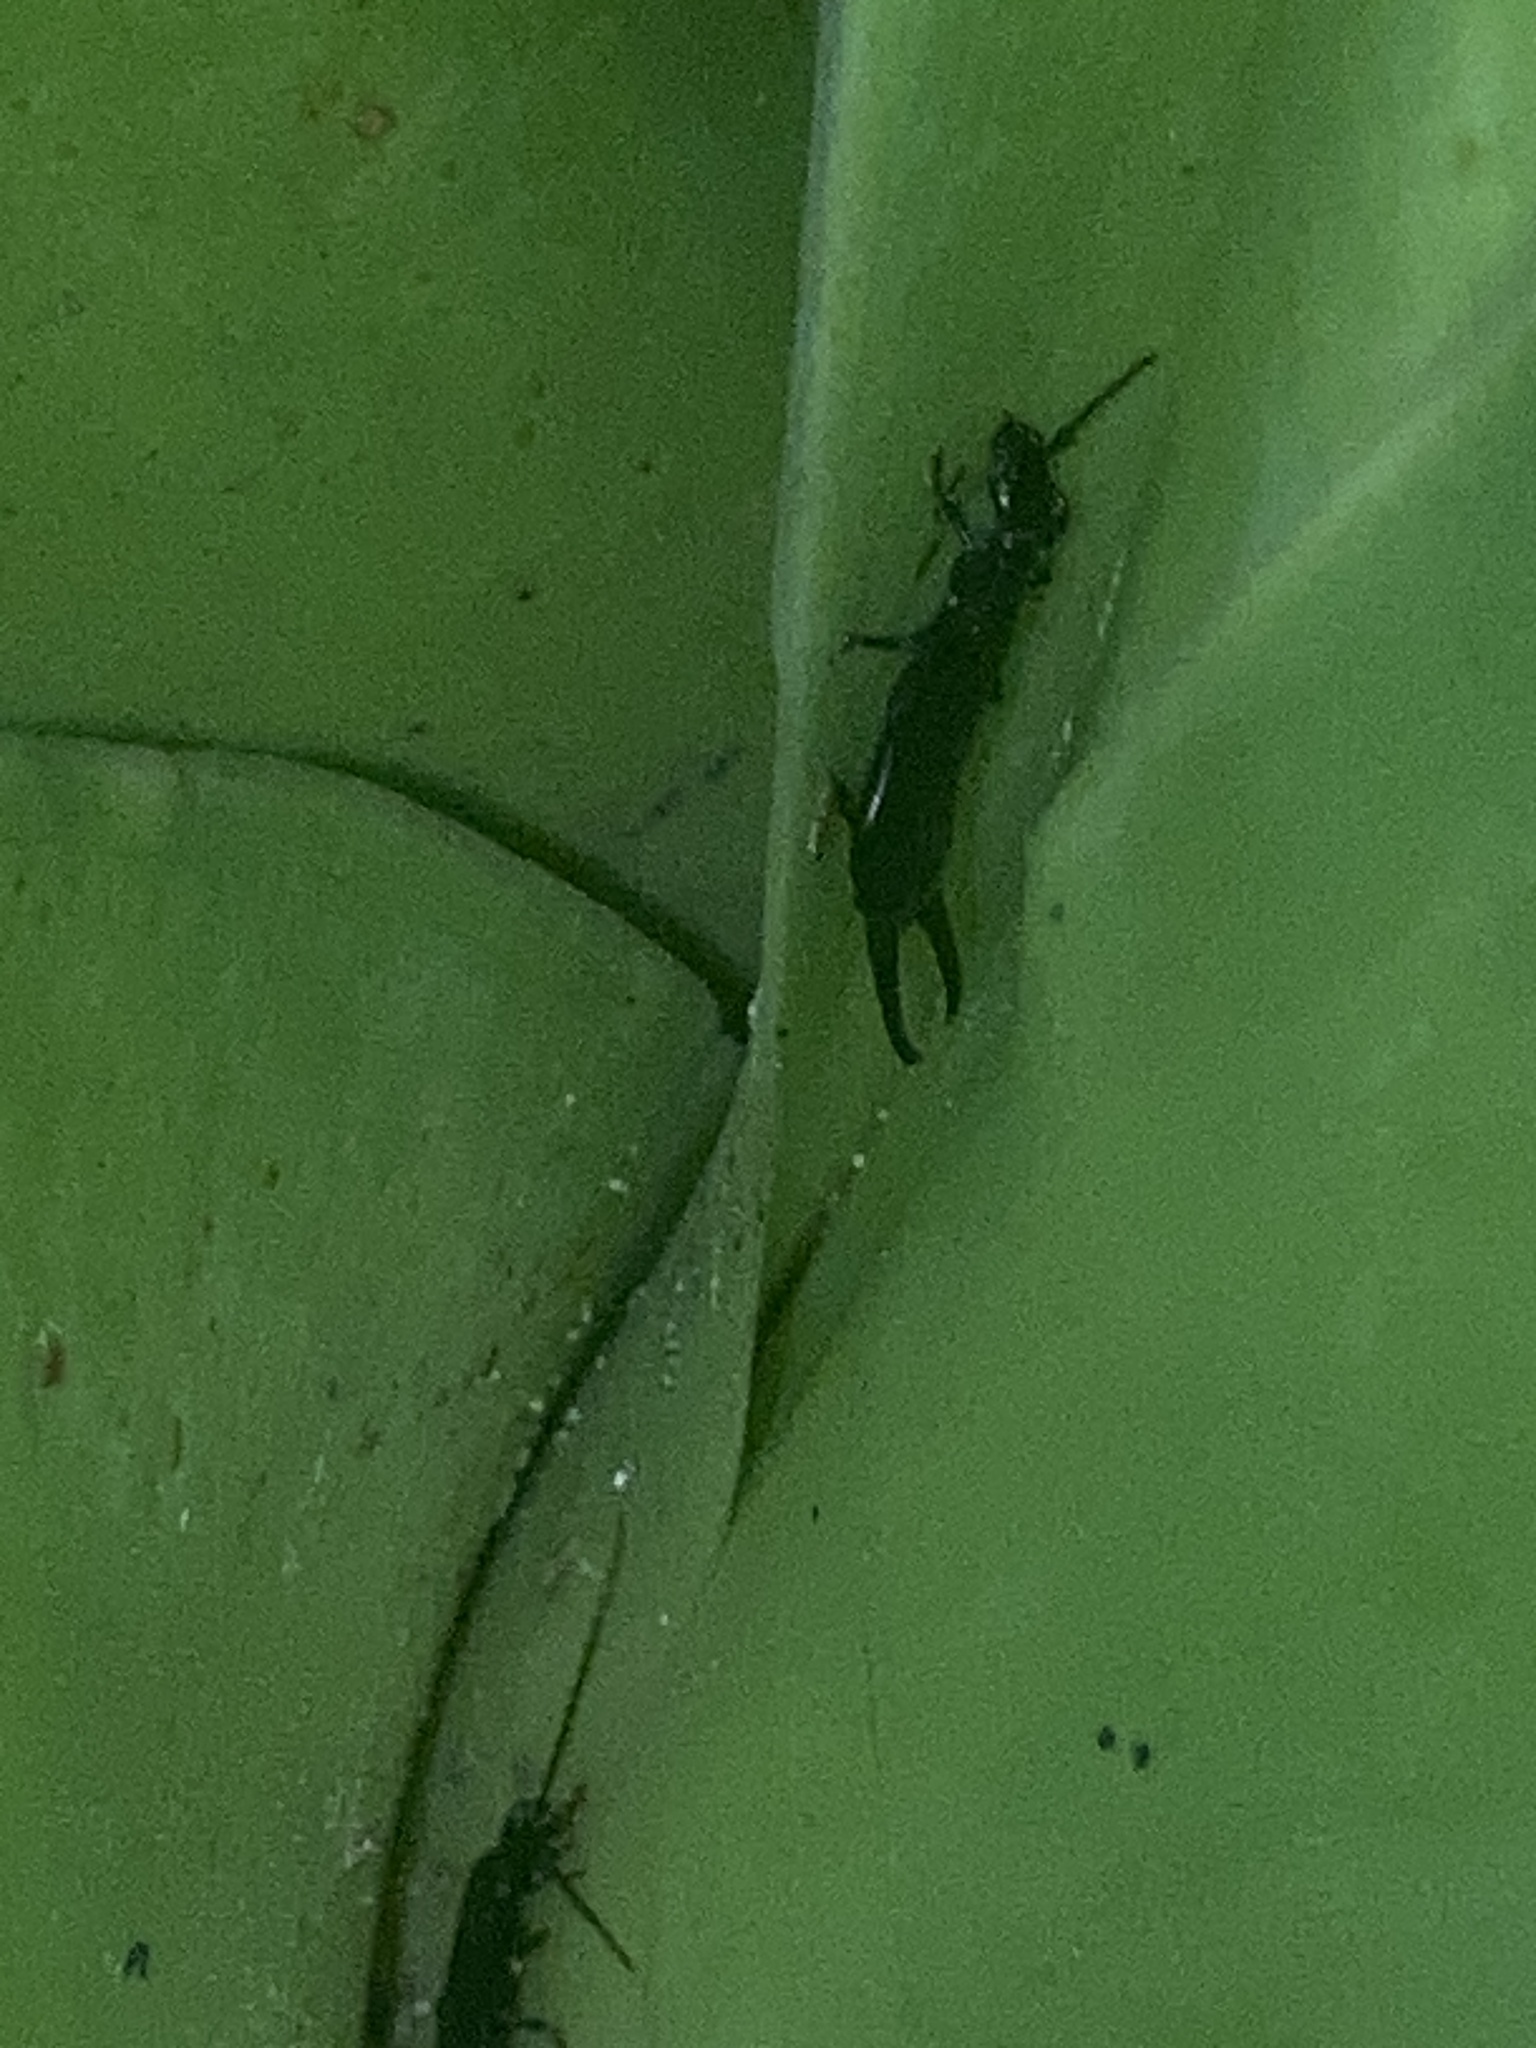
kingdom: Animalia
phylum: Arthropoda
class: Insecta
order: Dermaptera
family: Chelisochidae
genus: Chelisoches
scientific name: Chelisoches morio
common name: Black earwig
